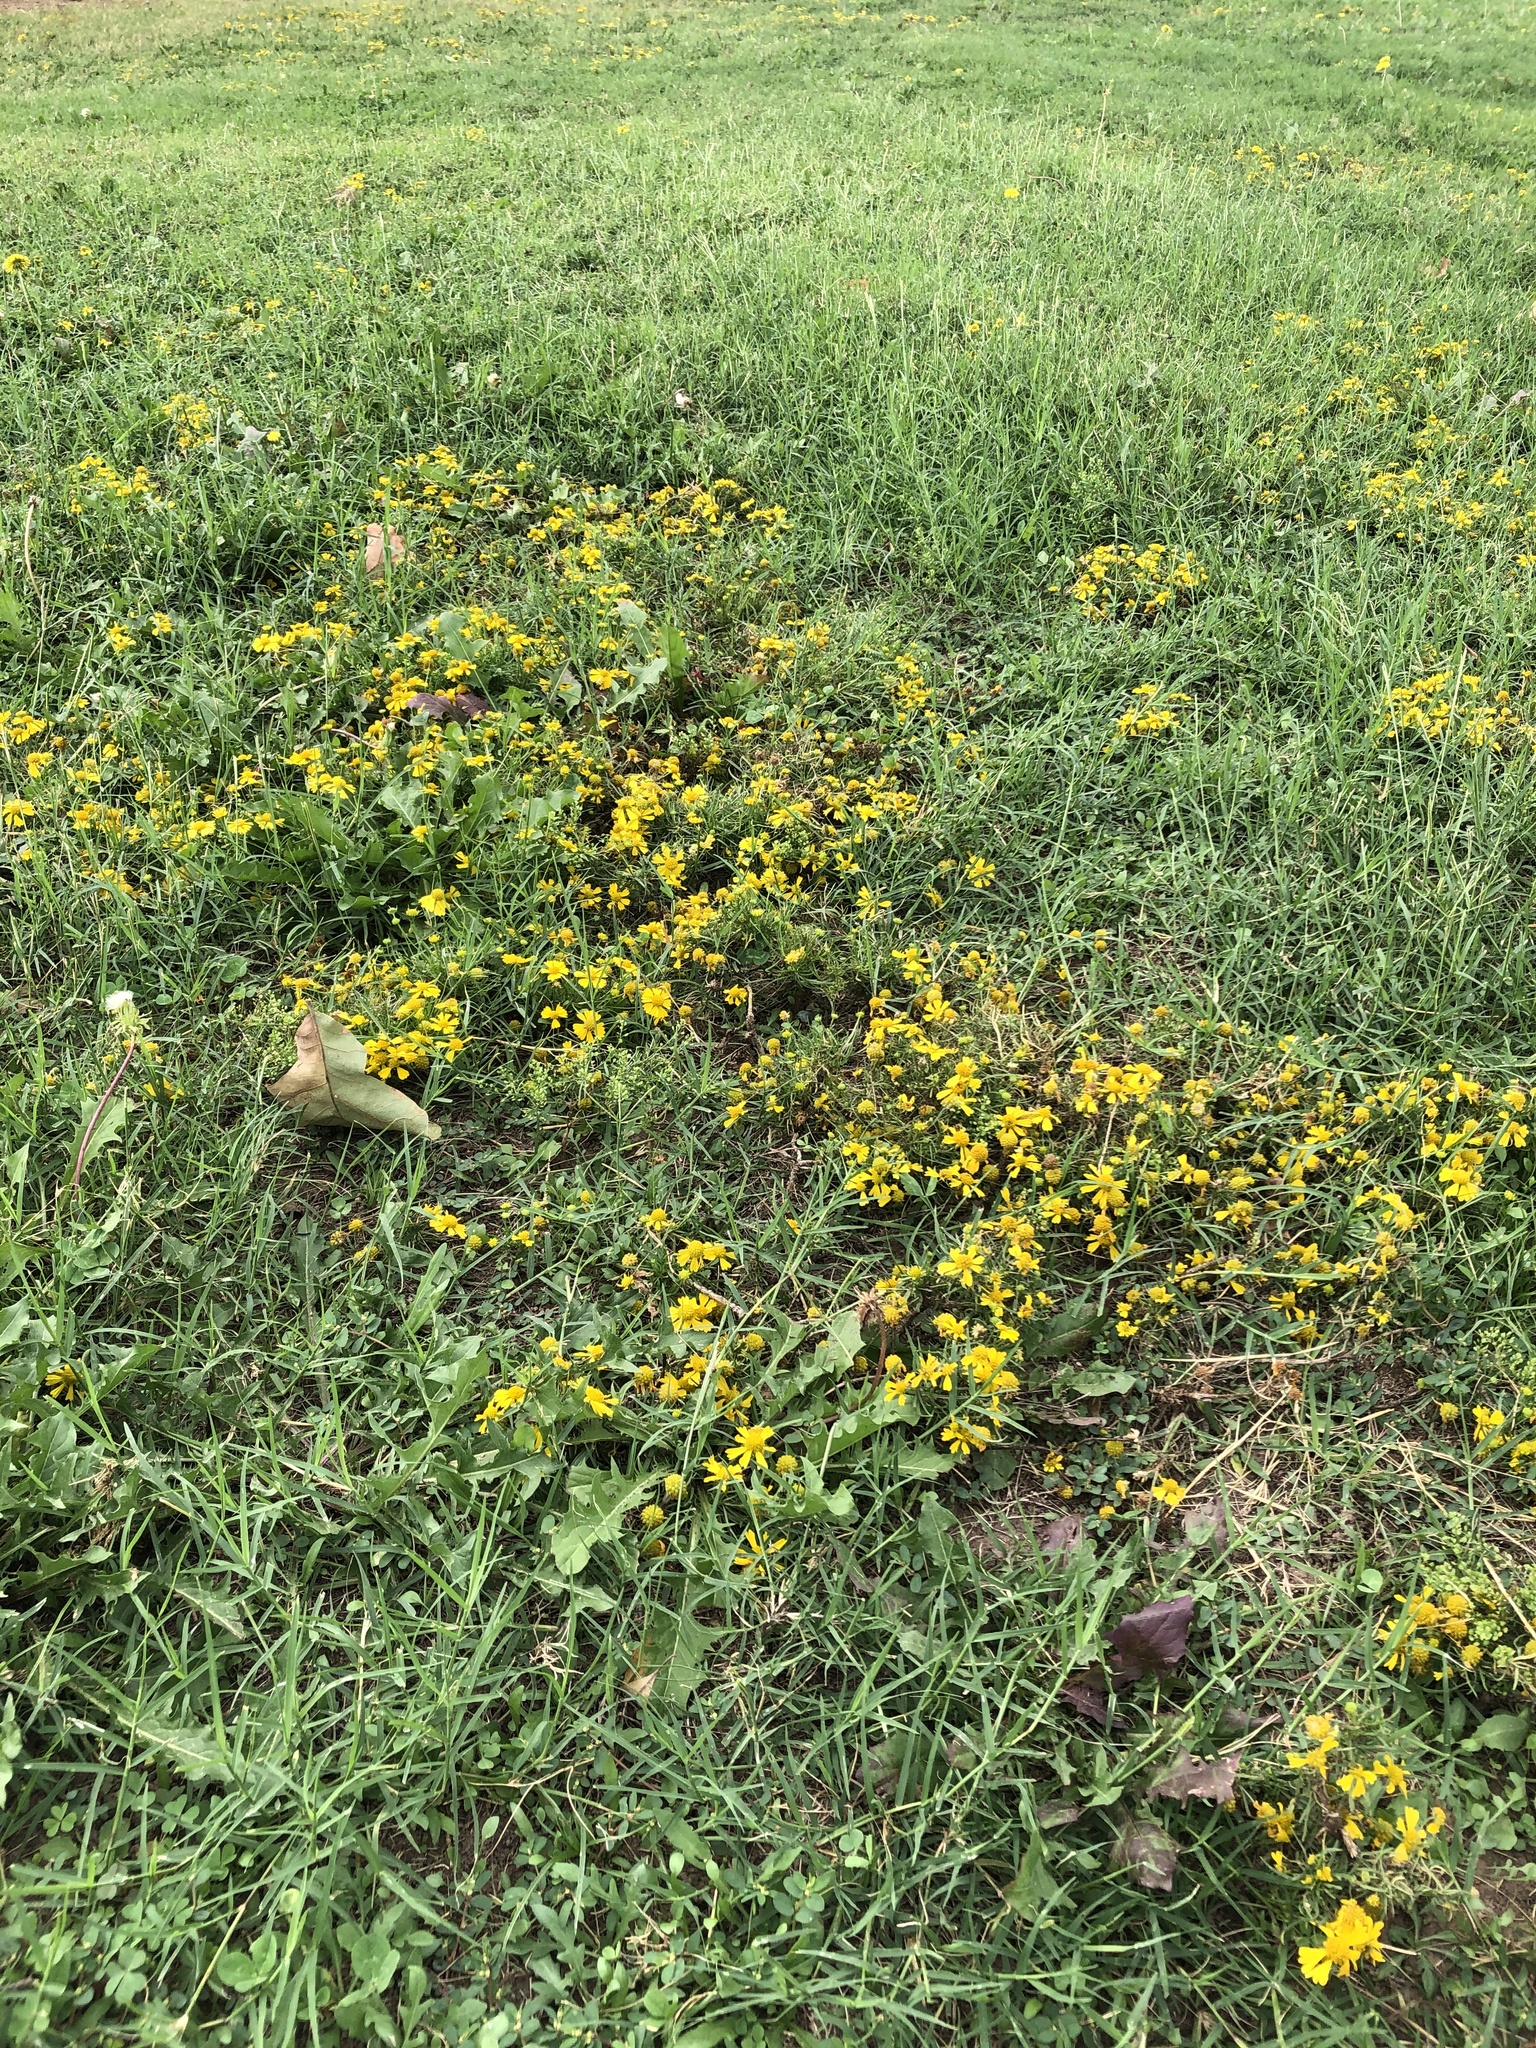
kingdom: Plantae
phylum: Tracheophyta
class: Magnoliopsida
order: Asterales
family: Asteraceae
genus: Helenium
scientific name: Helenium amarum
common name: Bitter sneezeweed
